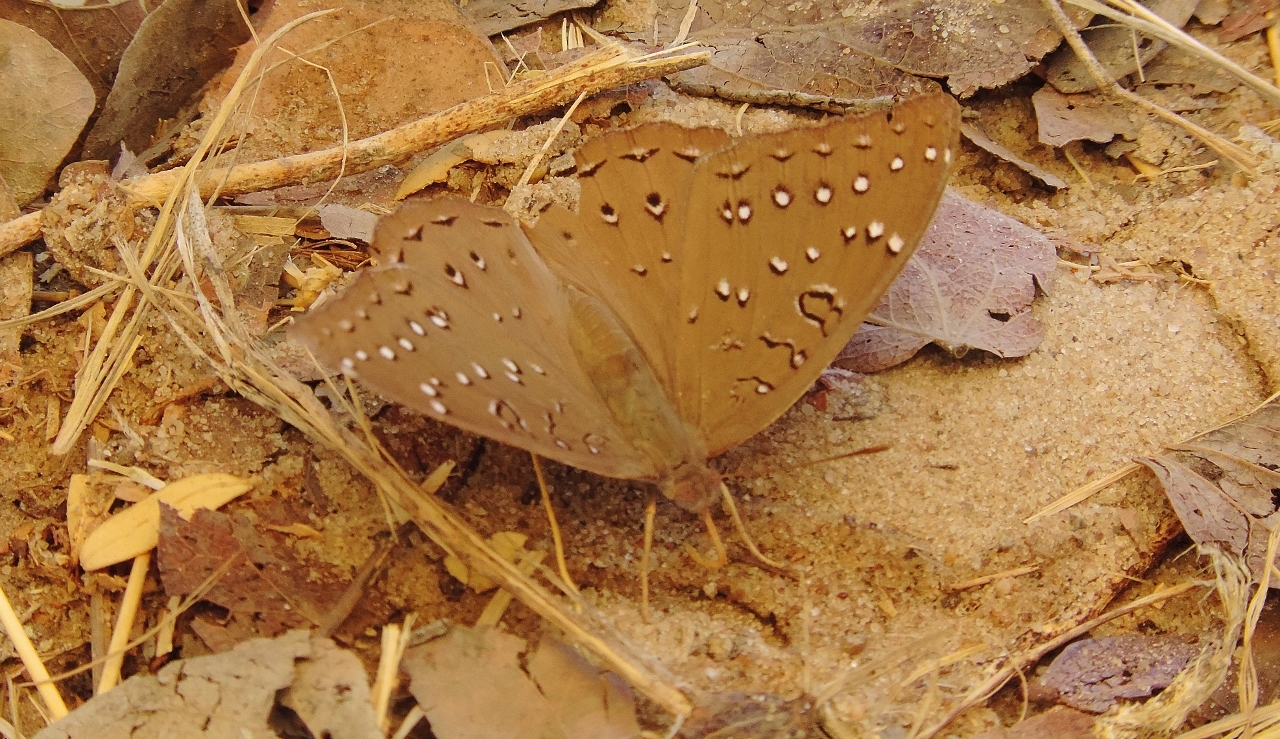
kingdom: Animalia
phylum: Arthropoda
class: Insecta
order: Lepidoptera
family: Nymphalidae
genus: Hamanumida
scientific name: Hamanumida daedalus
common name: Guinea-fowl butterfly
